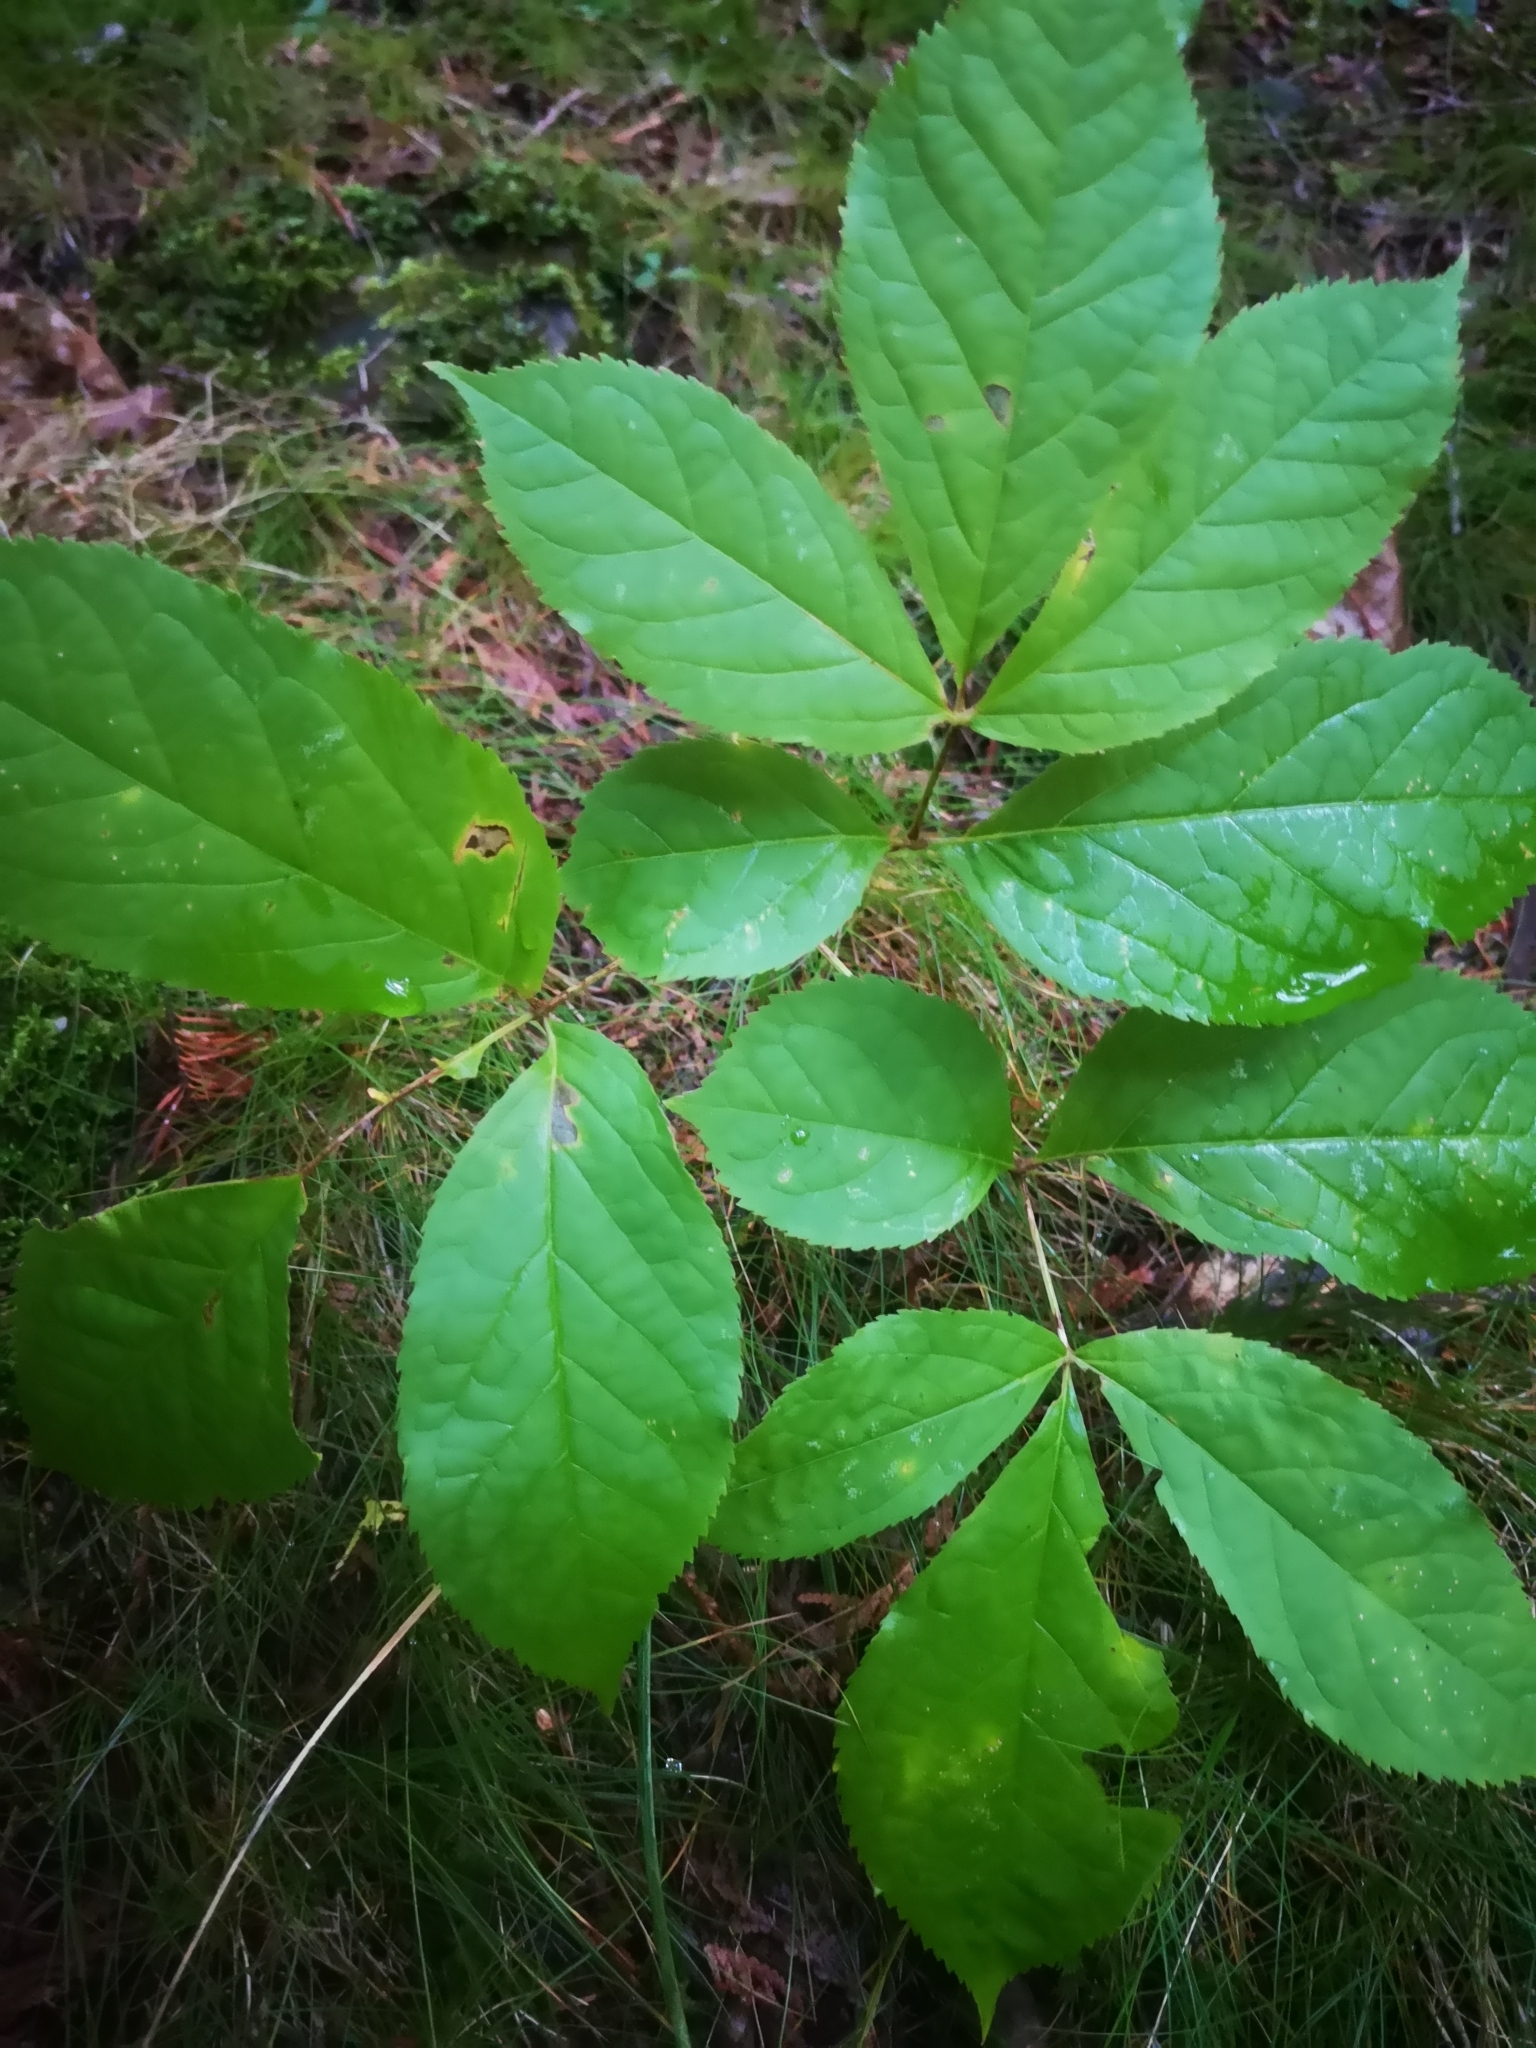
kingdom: Plantae
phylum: Tracheophyta
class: Magnoliopsida
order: Apiales
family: Araliaceae
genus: Aralia
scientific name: Aralia nudicaulis
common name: Wild sarsaparilla
